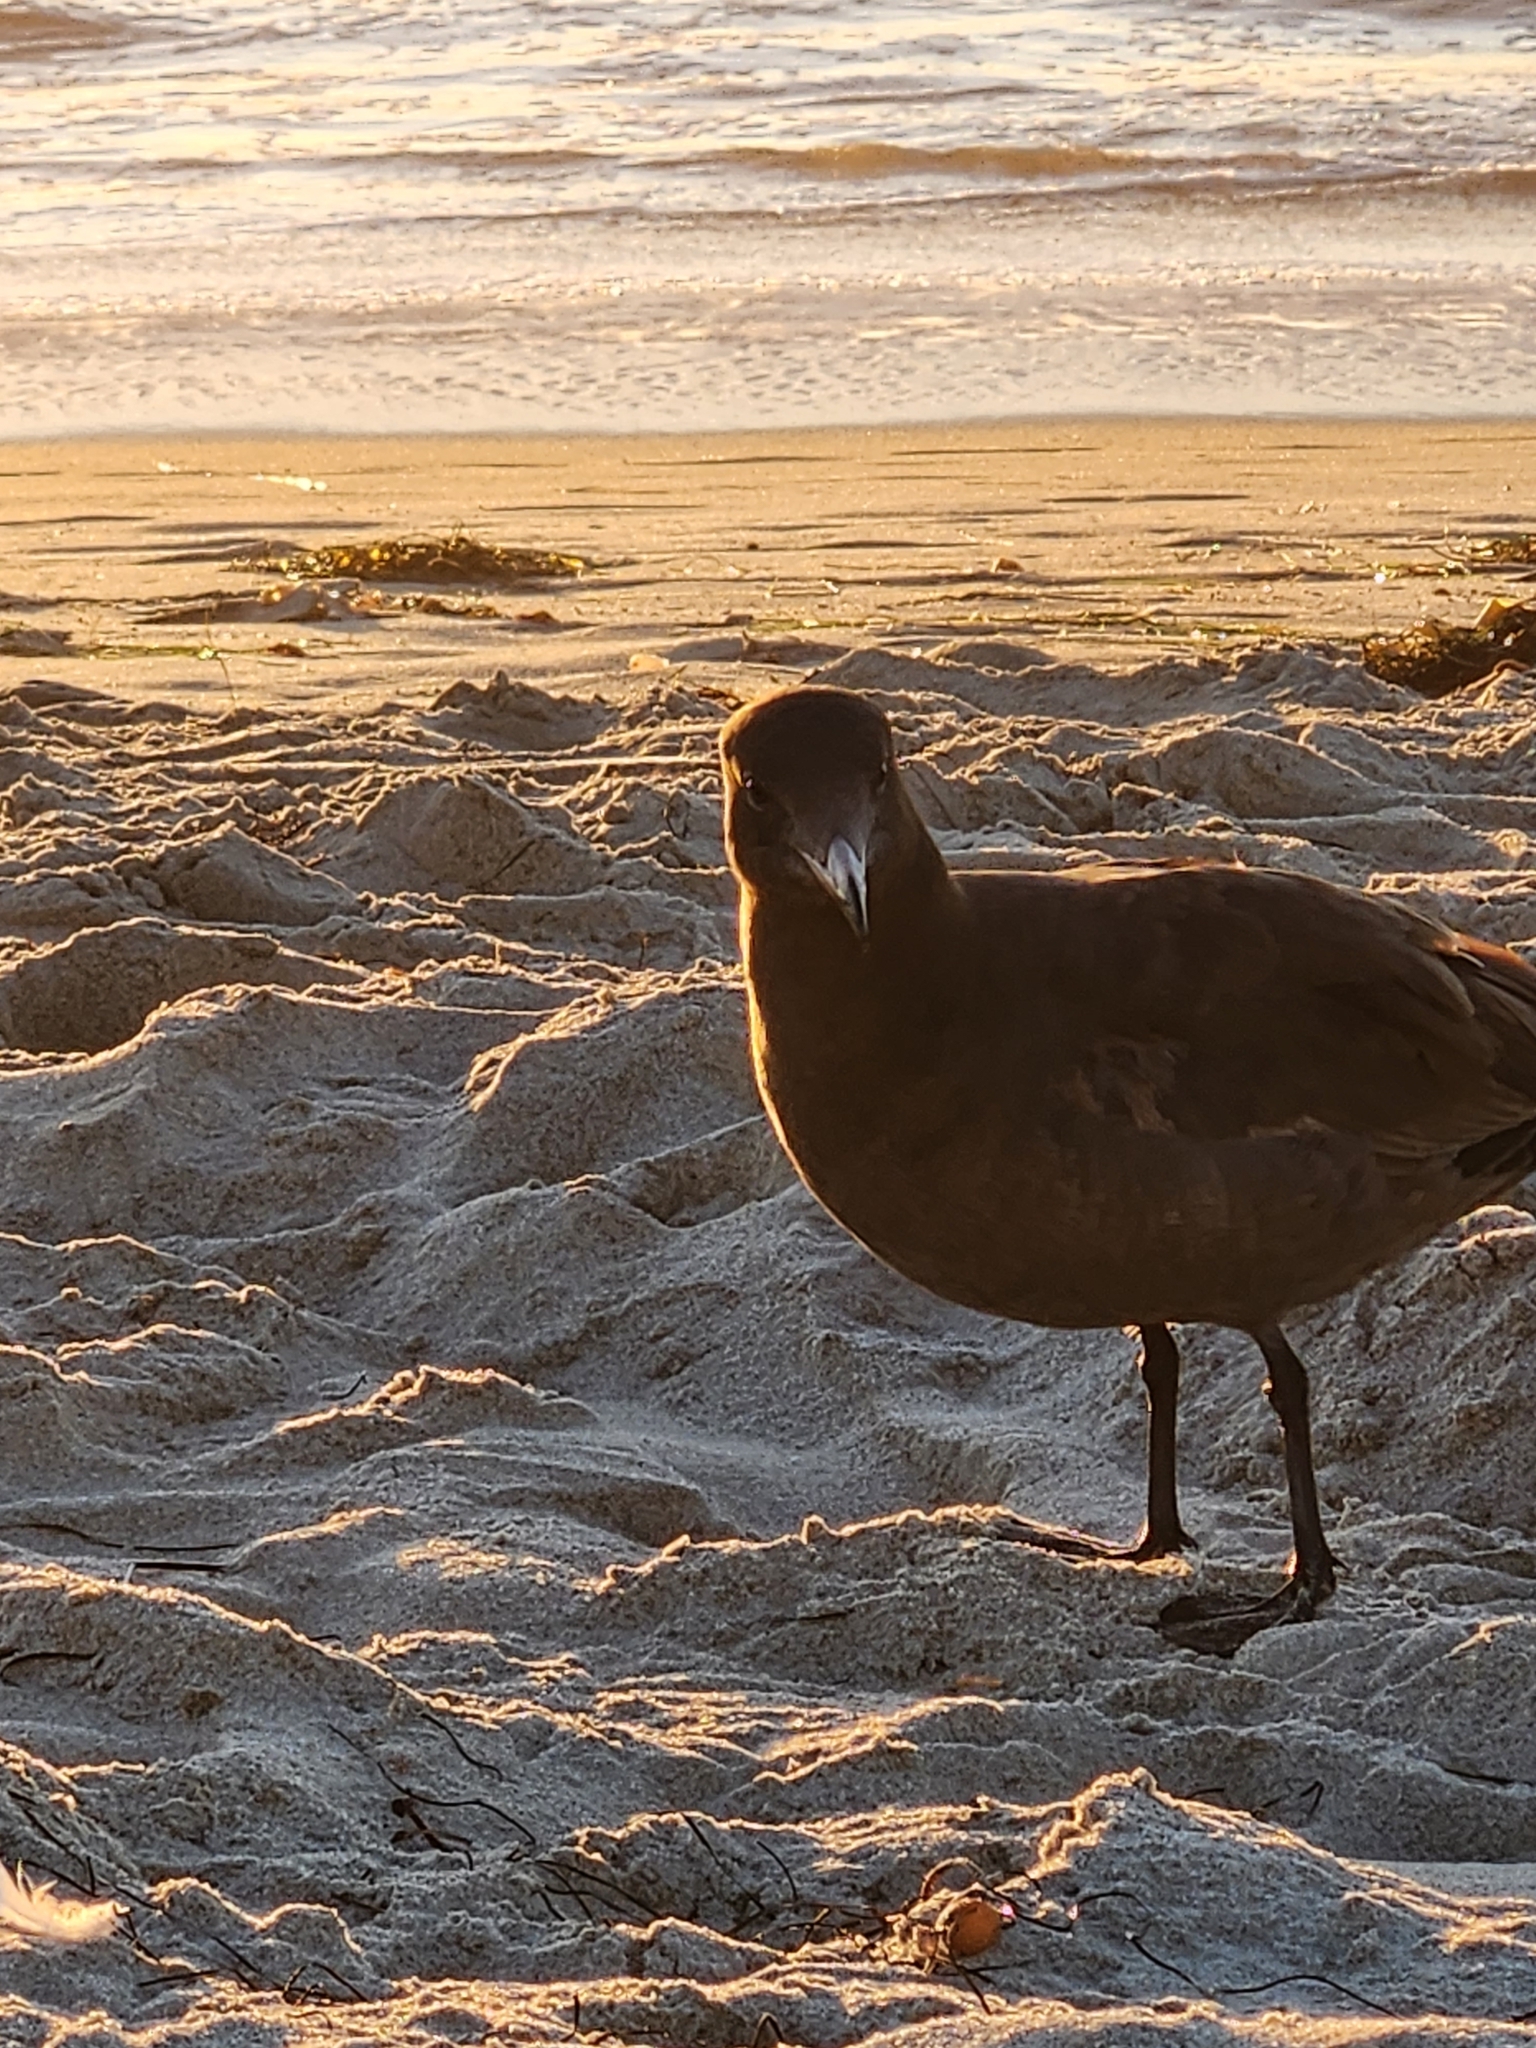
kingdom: Animalia
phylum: Chordata
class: Aves
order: Charadriiformes
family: Laridae
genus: Larus
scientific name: Larus heermanni
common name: Heermann's gull
